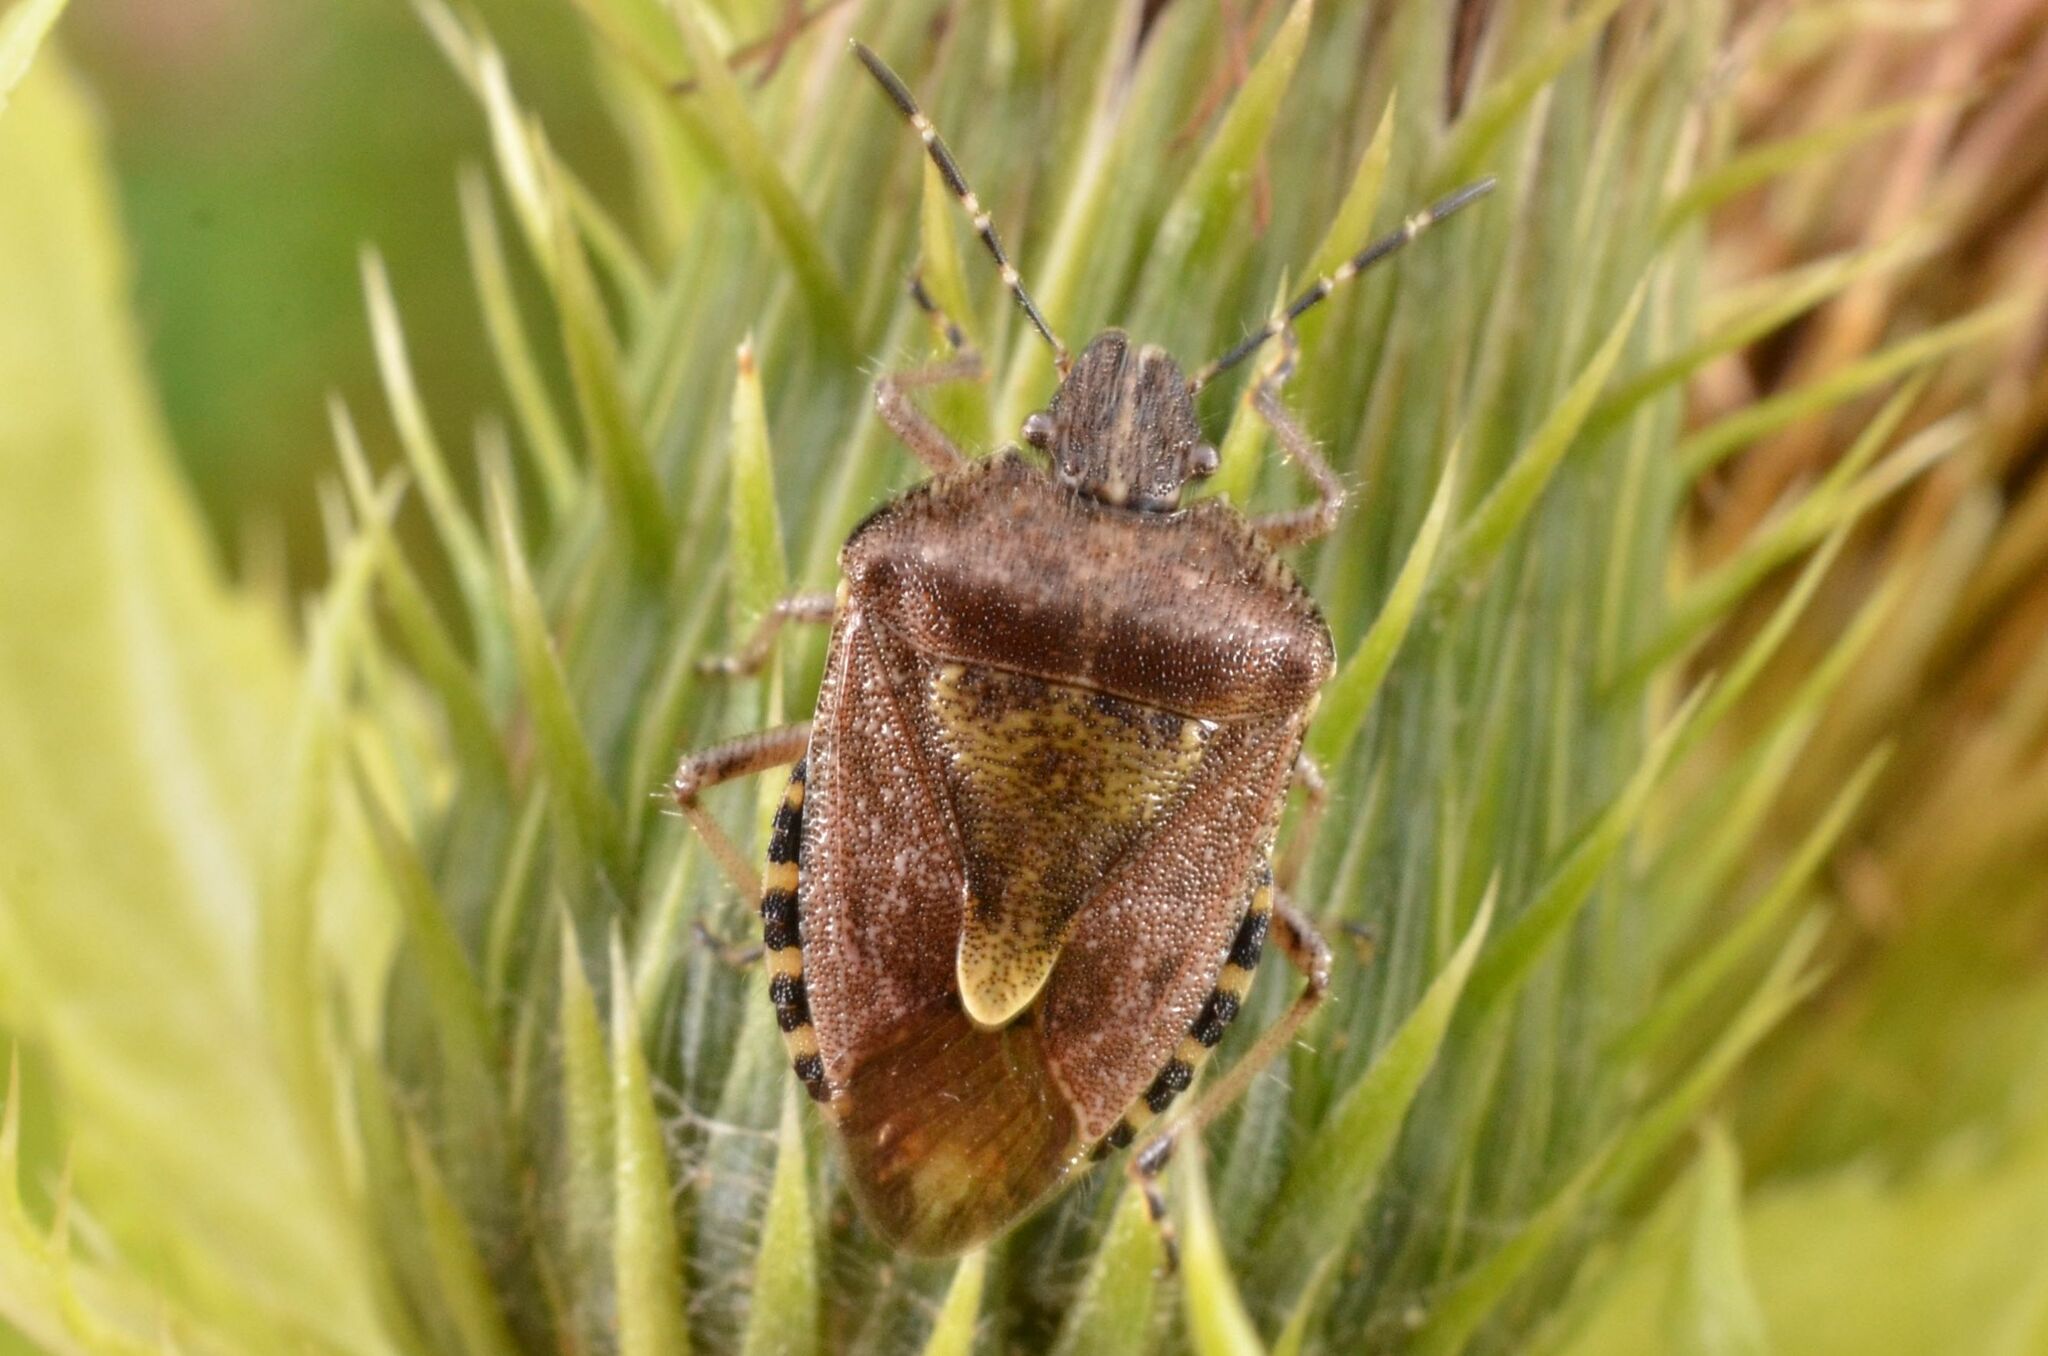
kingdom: Animalia
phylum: Arthropoda
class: Insecta
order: Hemiptera
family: Pentatomidae
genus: Dolycoris
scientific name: Dolycoris baccarum
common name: Sloe bug
